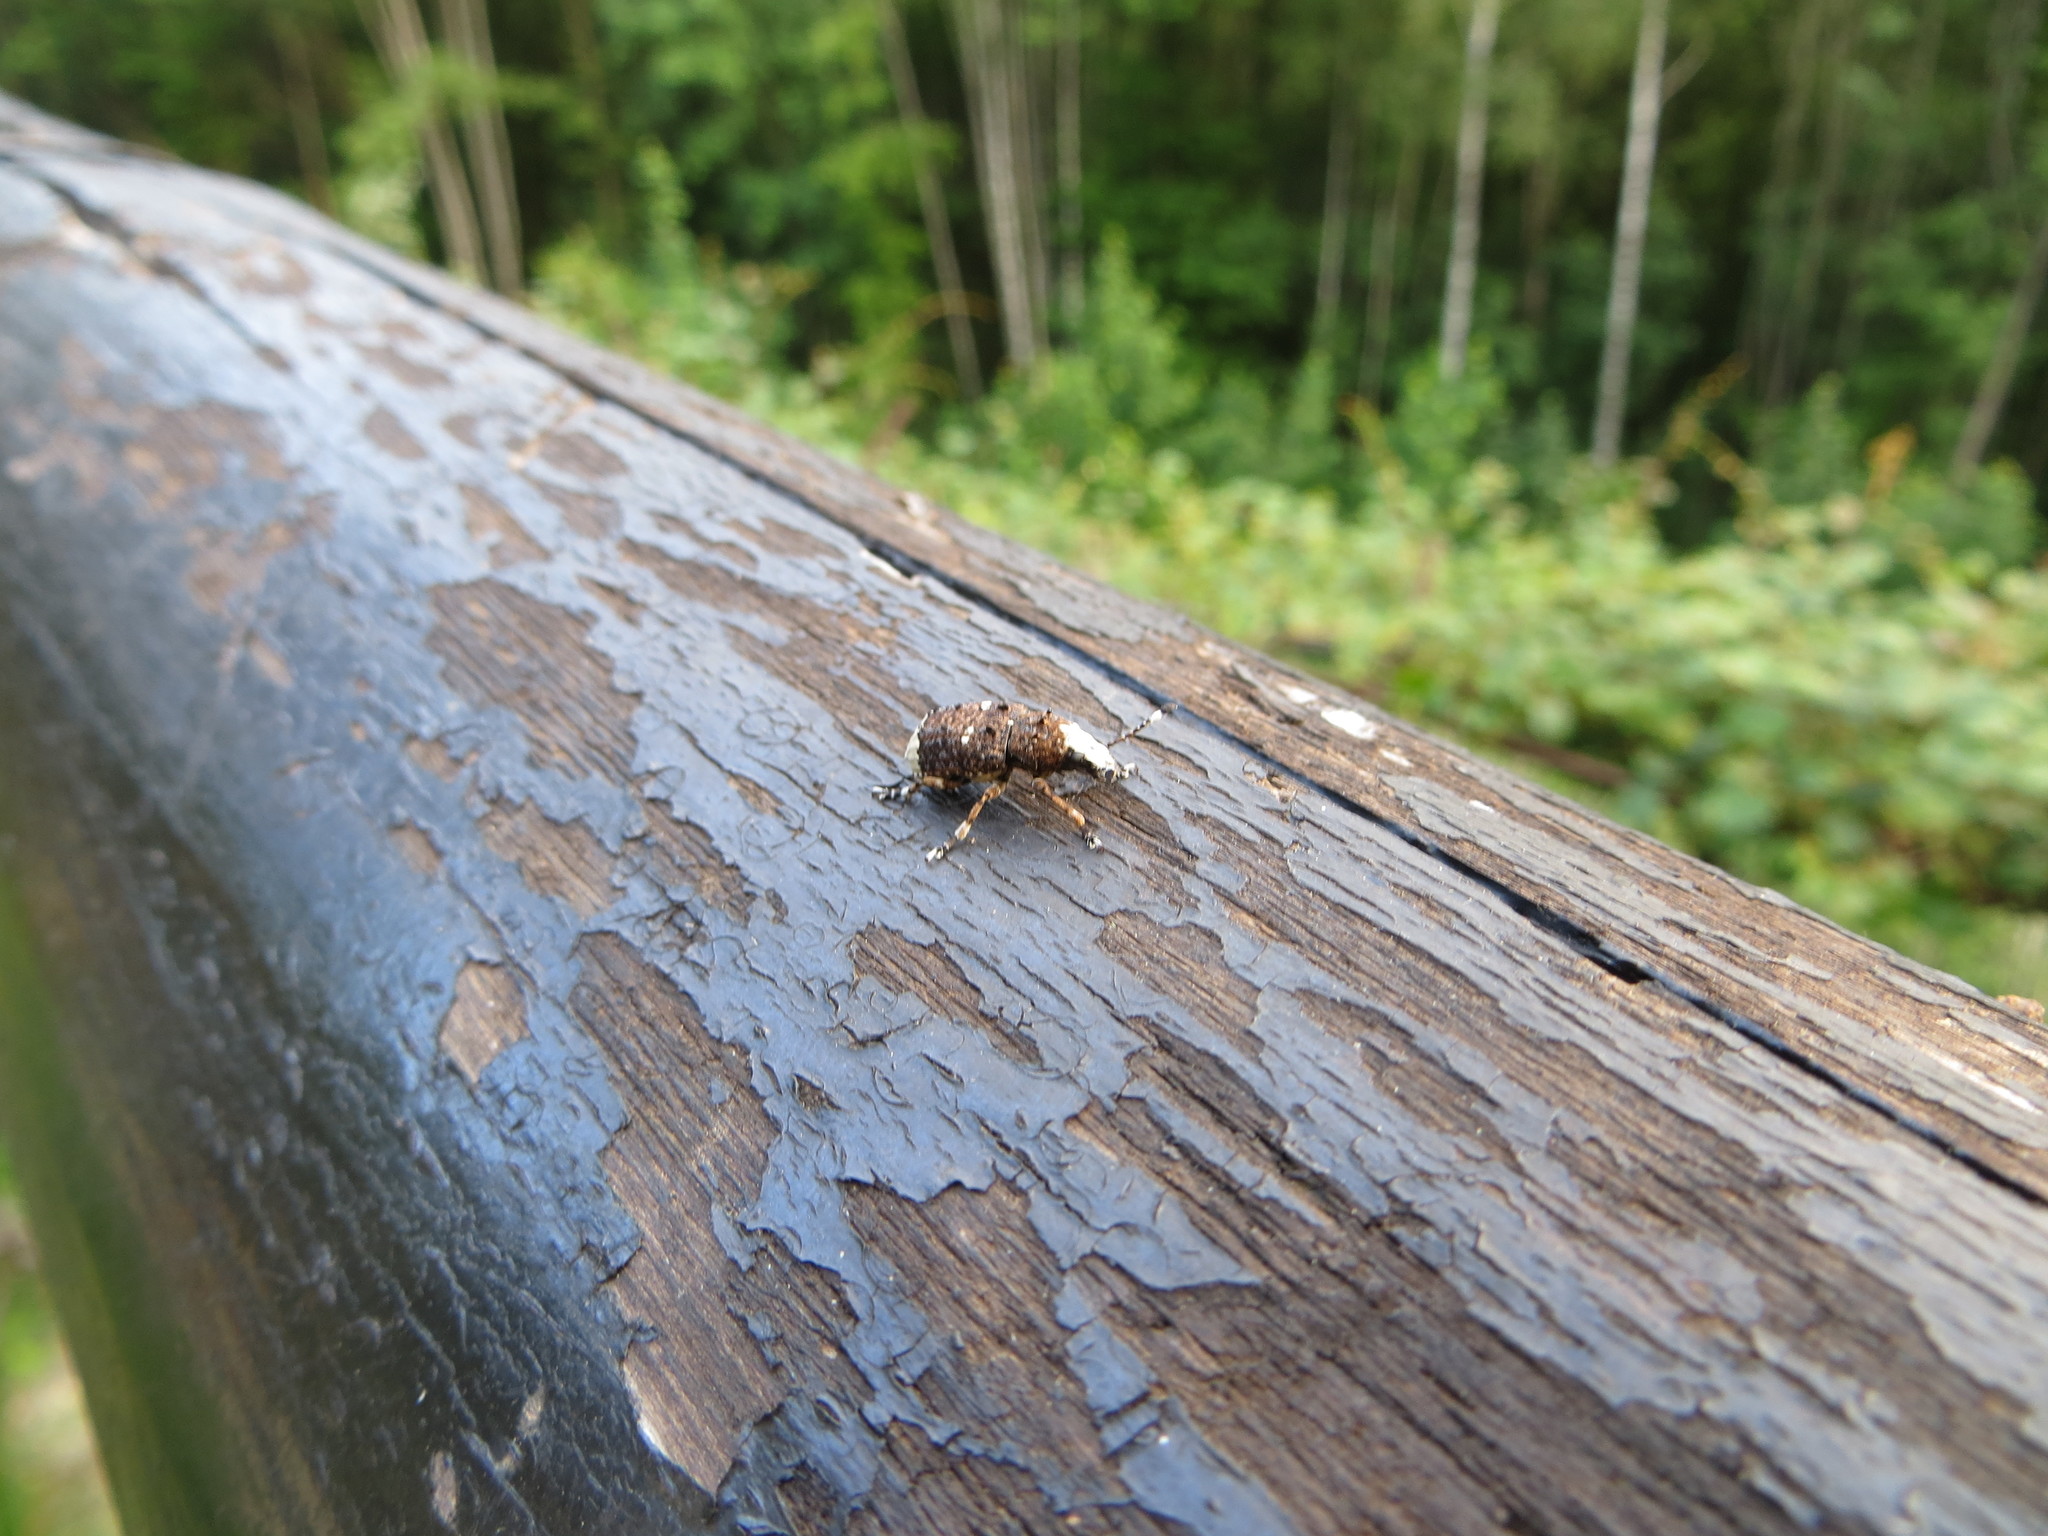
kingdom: Animalia
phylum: Arthropoda
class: Insecta
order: Coleoptera
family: Anthribidae
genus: Platystomos
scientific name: Platystomos albinus
